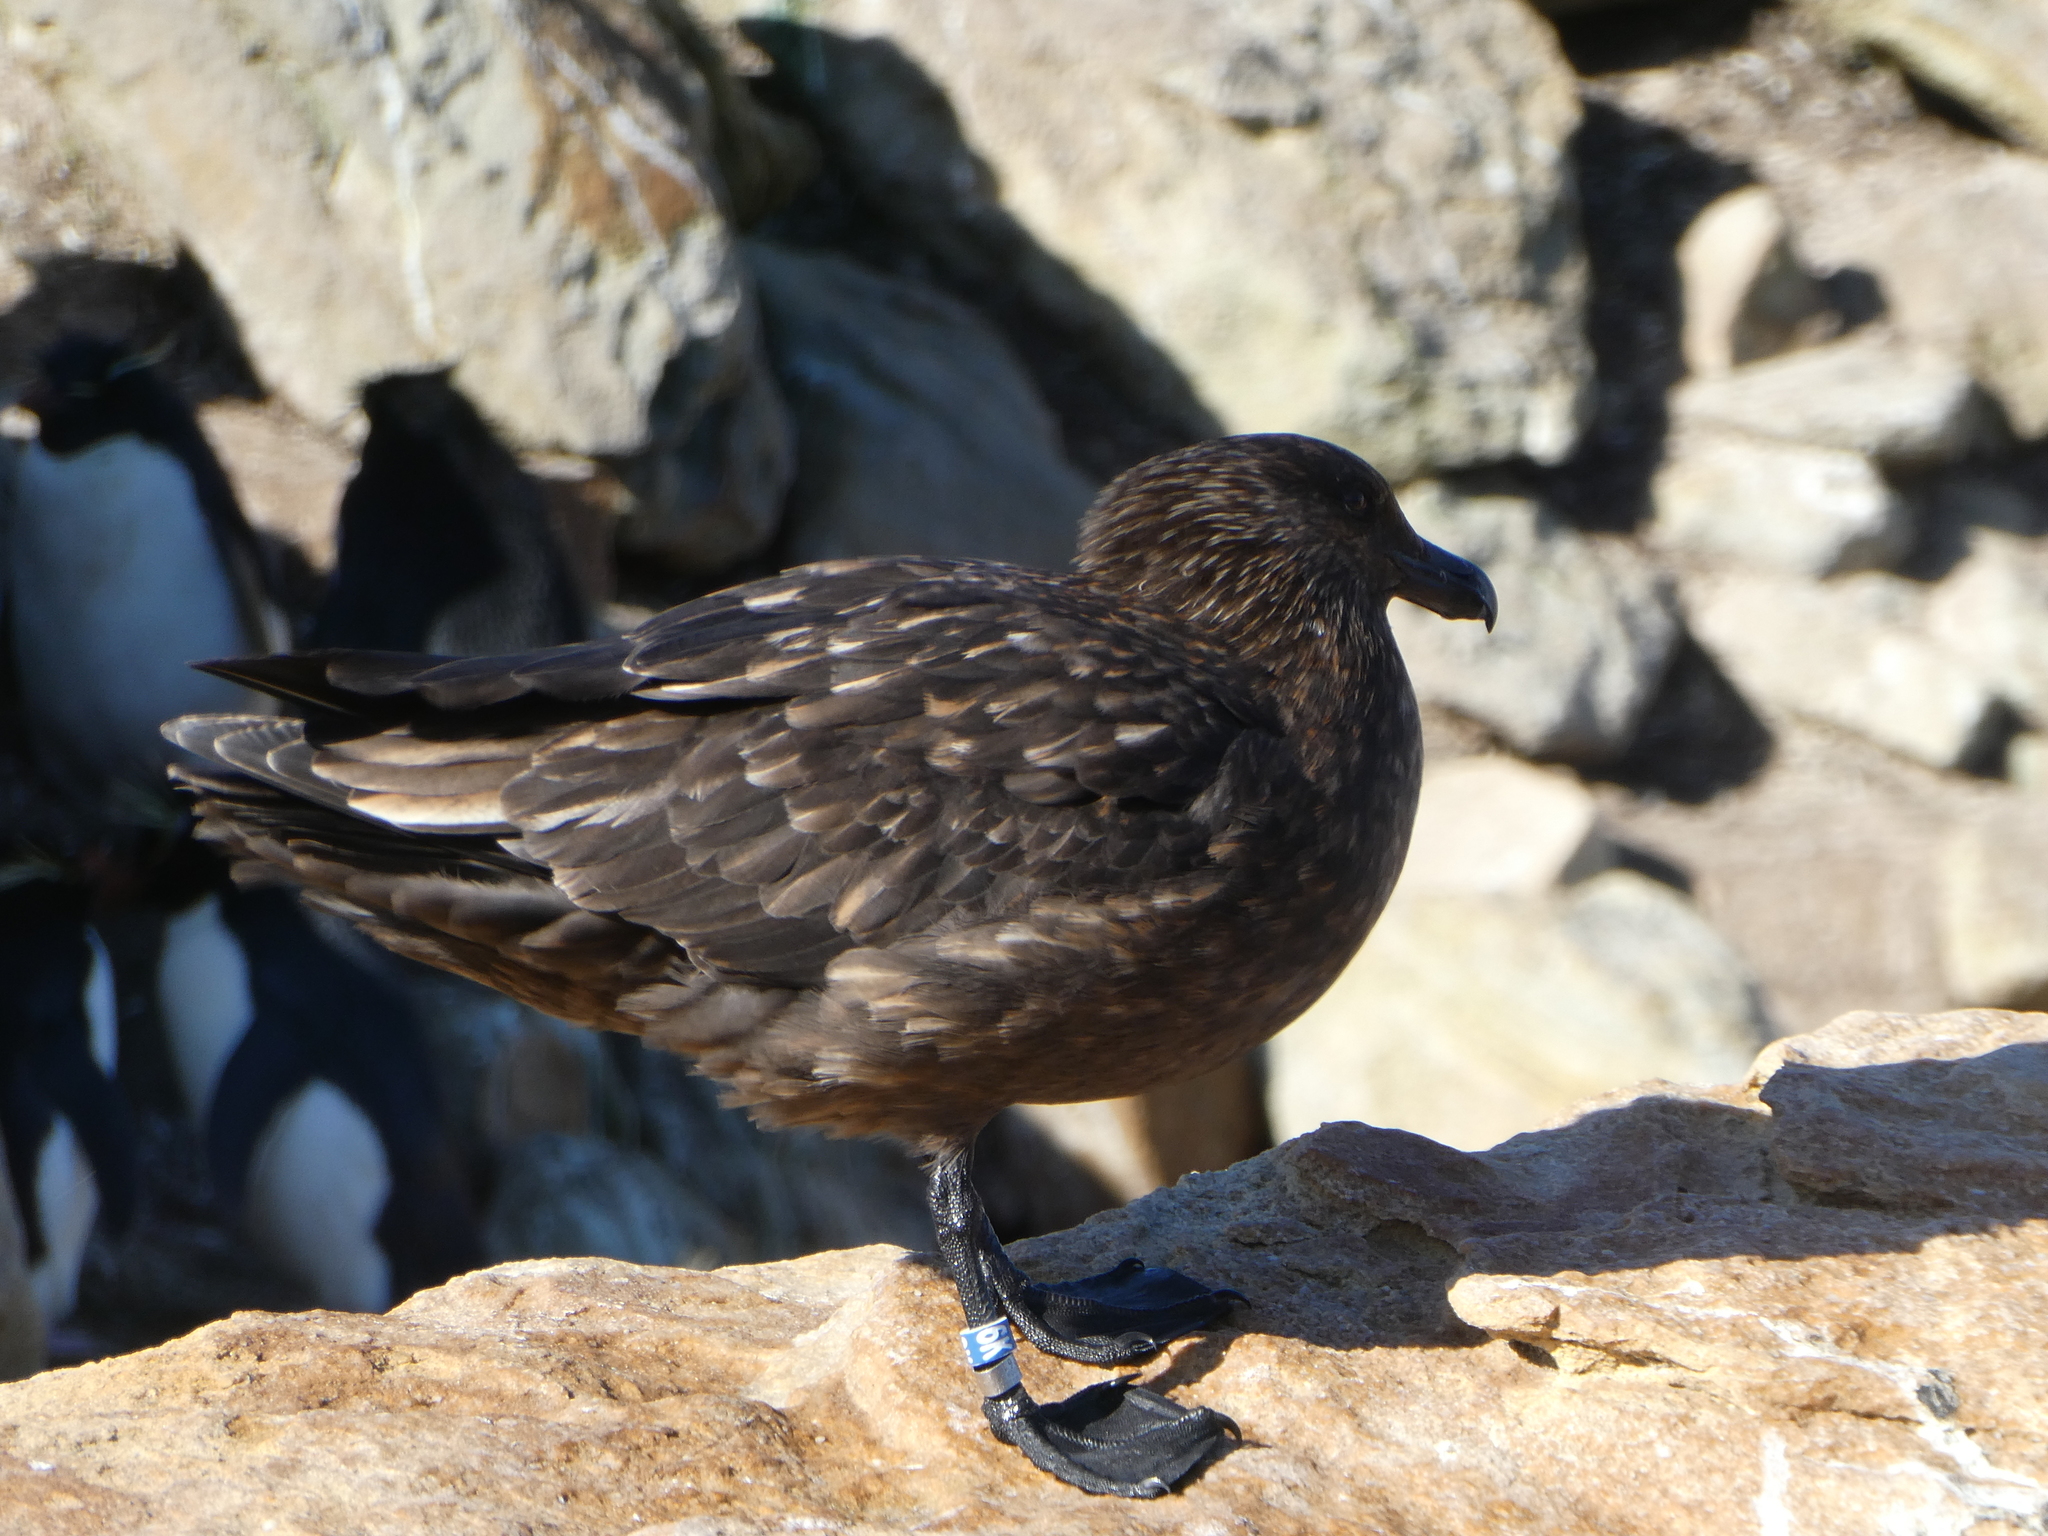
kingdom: Animalia
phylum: Chordata
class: Aves
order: Charadriiformes
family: Stercorariidae
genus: Stercorarius
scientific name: Stercorarius antarcticus
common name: Brown skua
